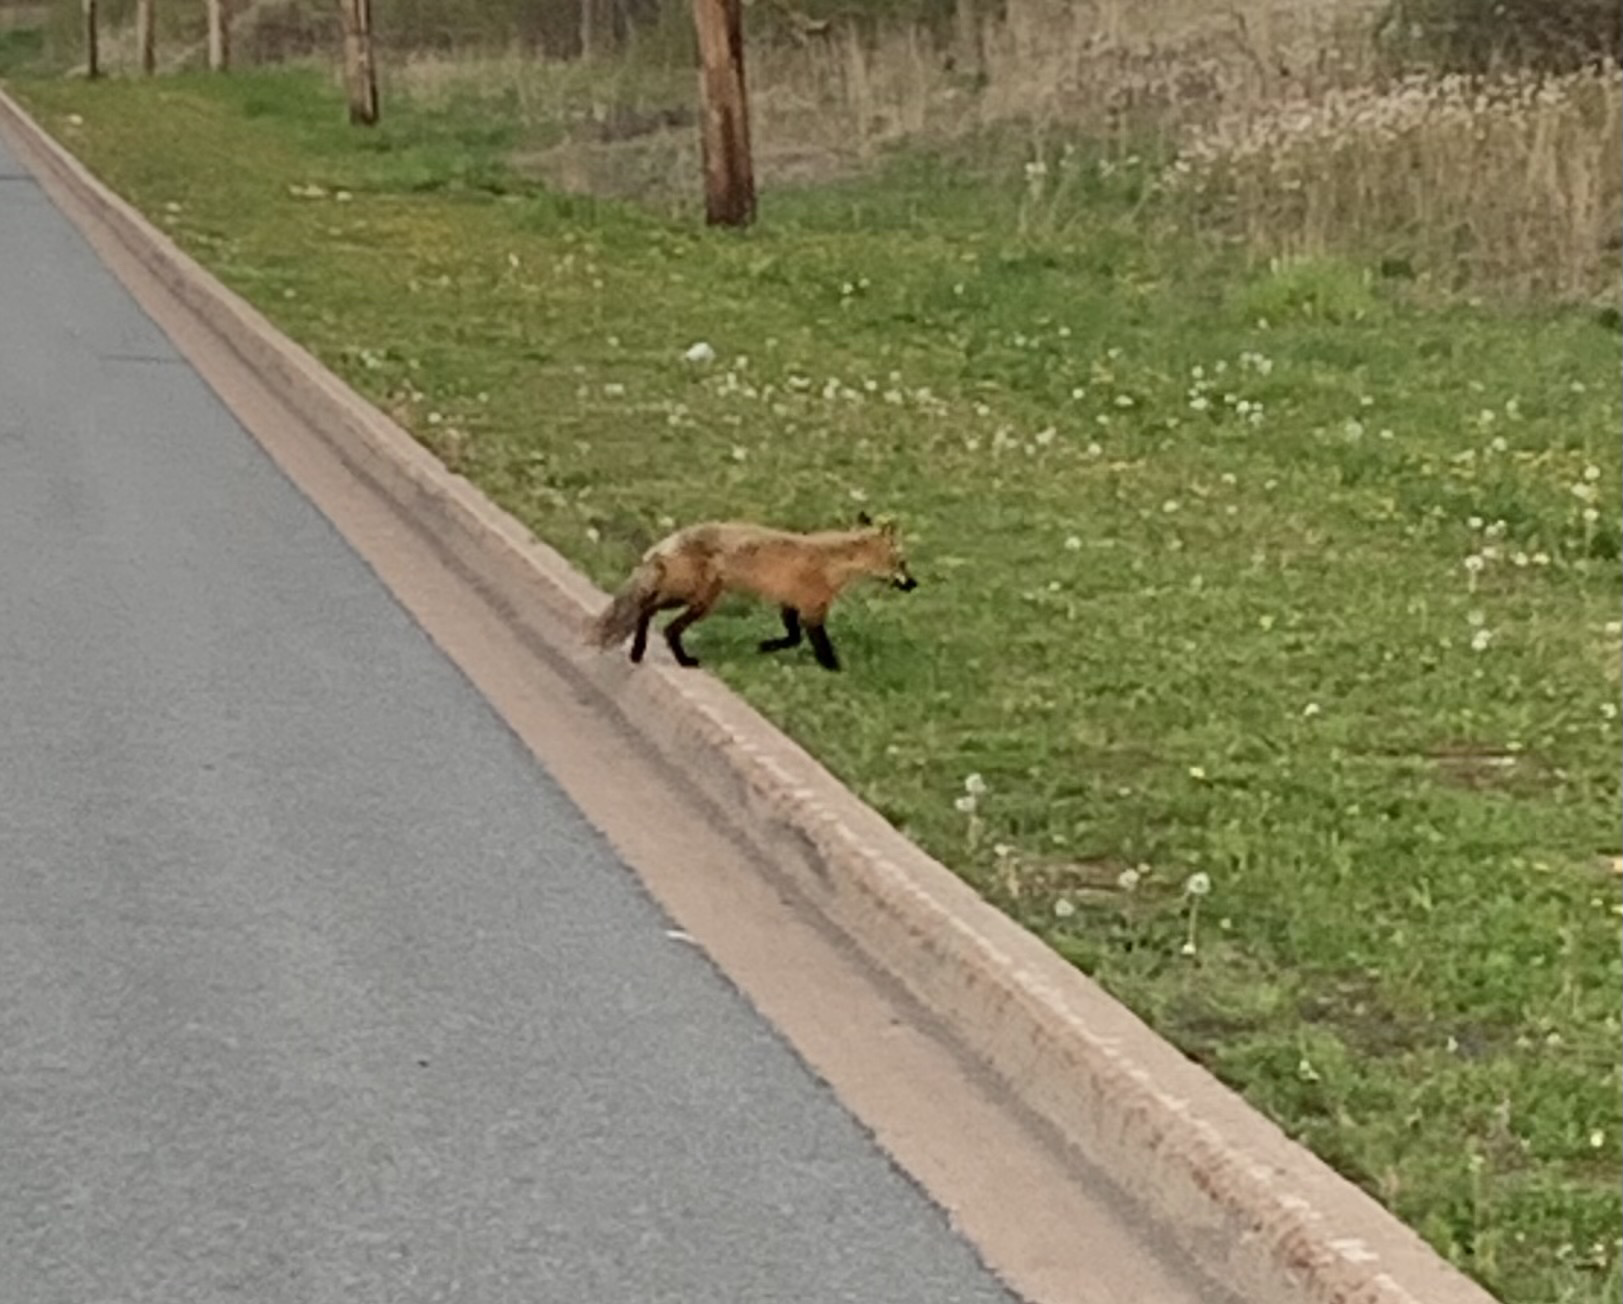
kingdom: Animalia
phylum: Chordata
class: Mammalia
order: Carnivora
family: Canidae
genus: Vulpes
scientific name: Vulpes vulpes
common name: Red fox
